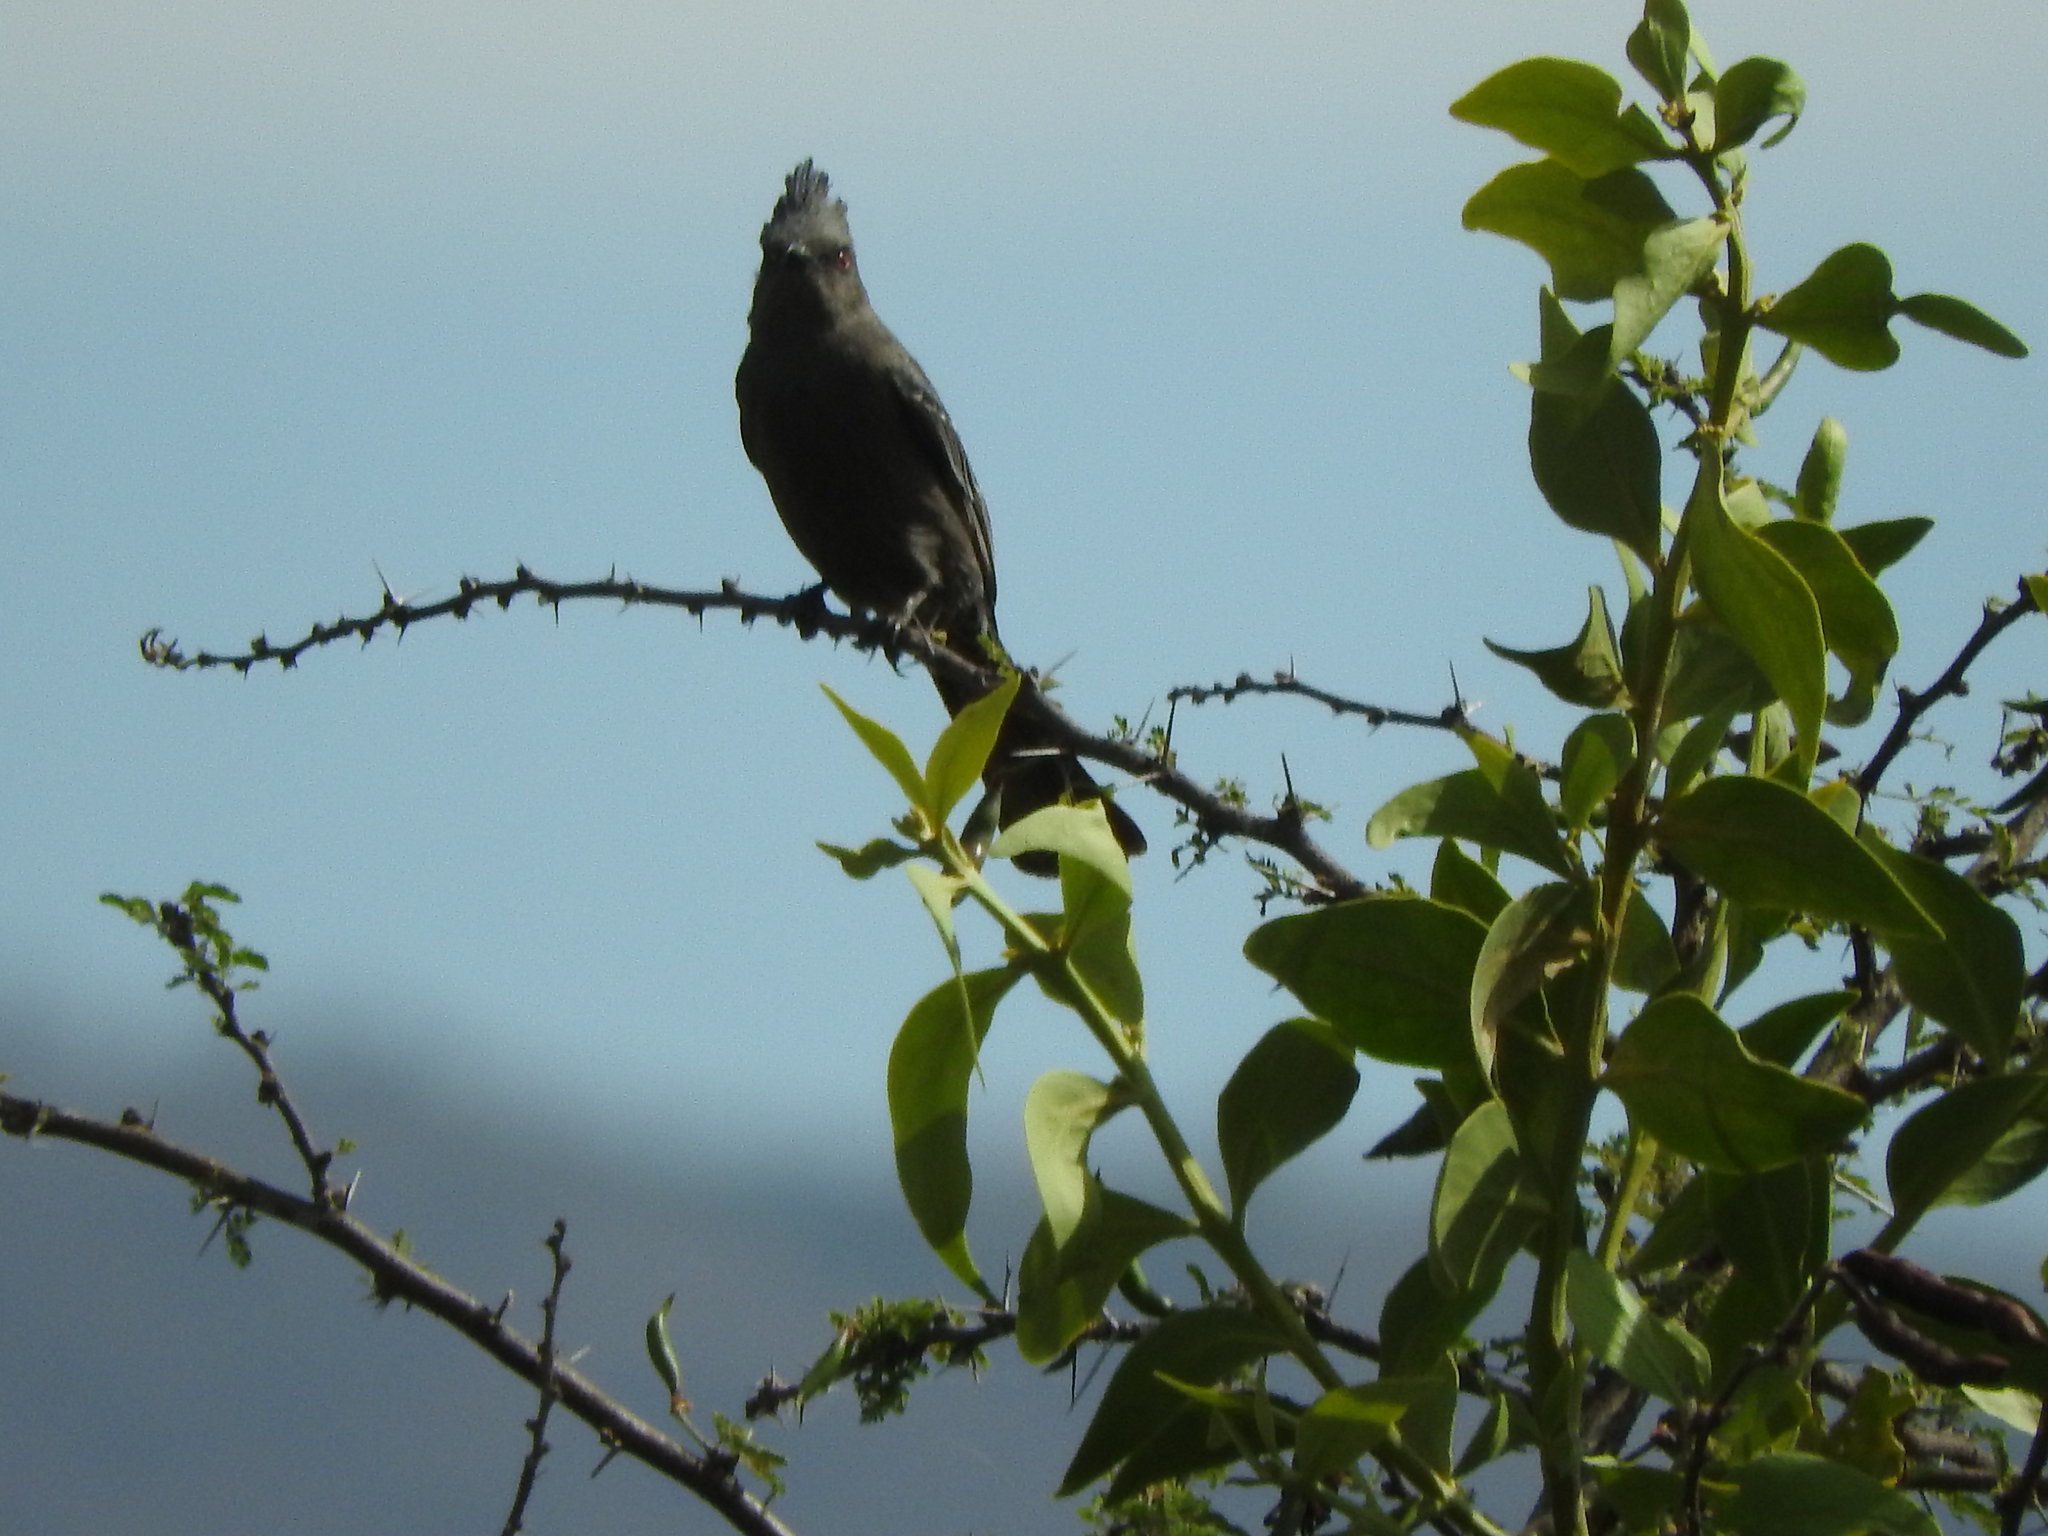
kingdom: Animalia
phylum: Chordata
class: Aves
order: Passeriformes
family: Ptilogonatidae
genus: Phainopepla
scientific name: Phainopepla nitens
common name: Phainopepla
